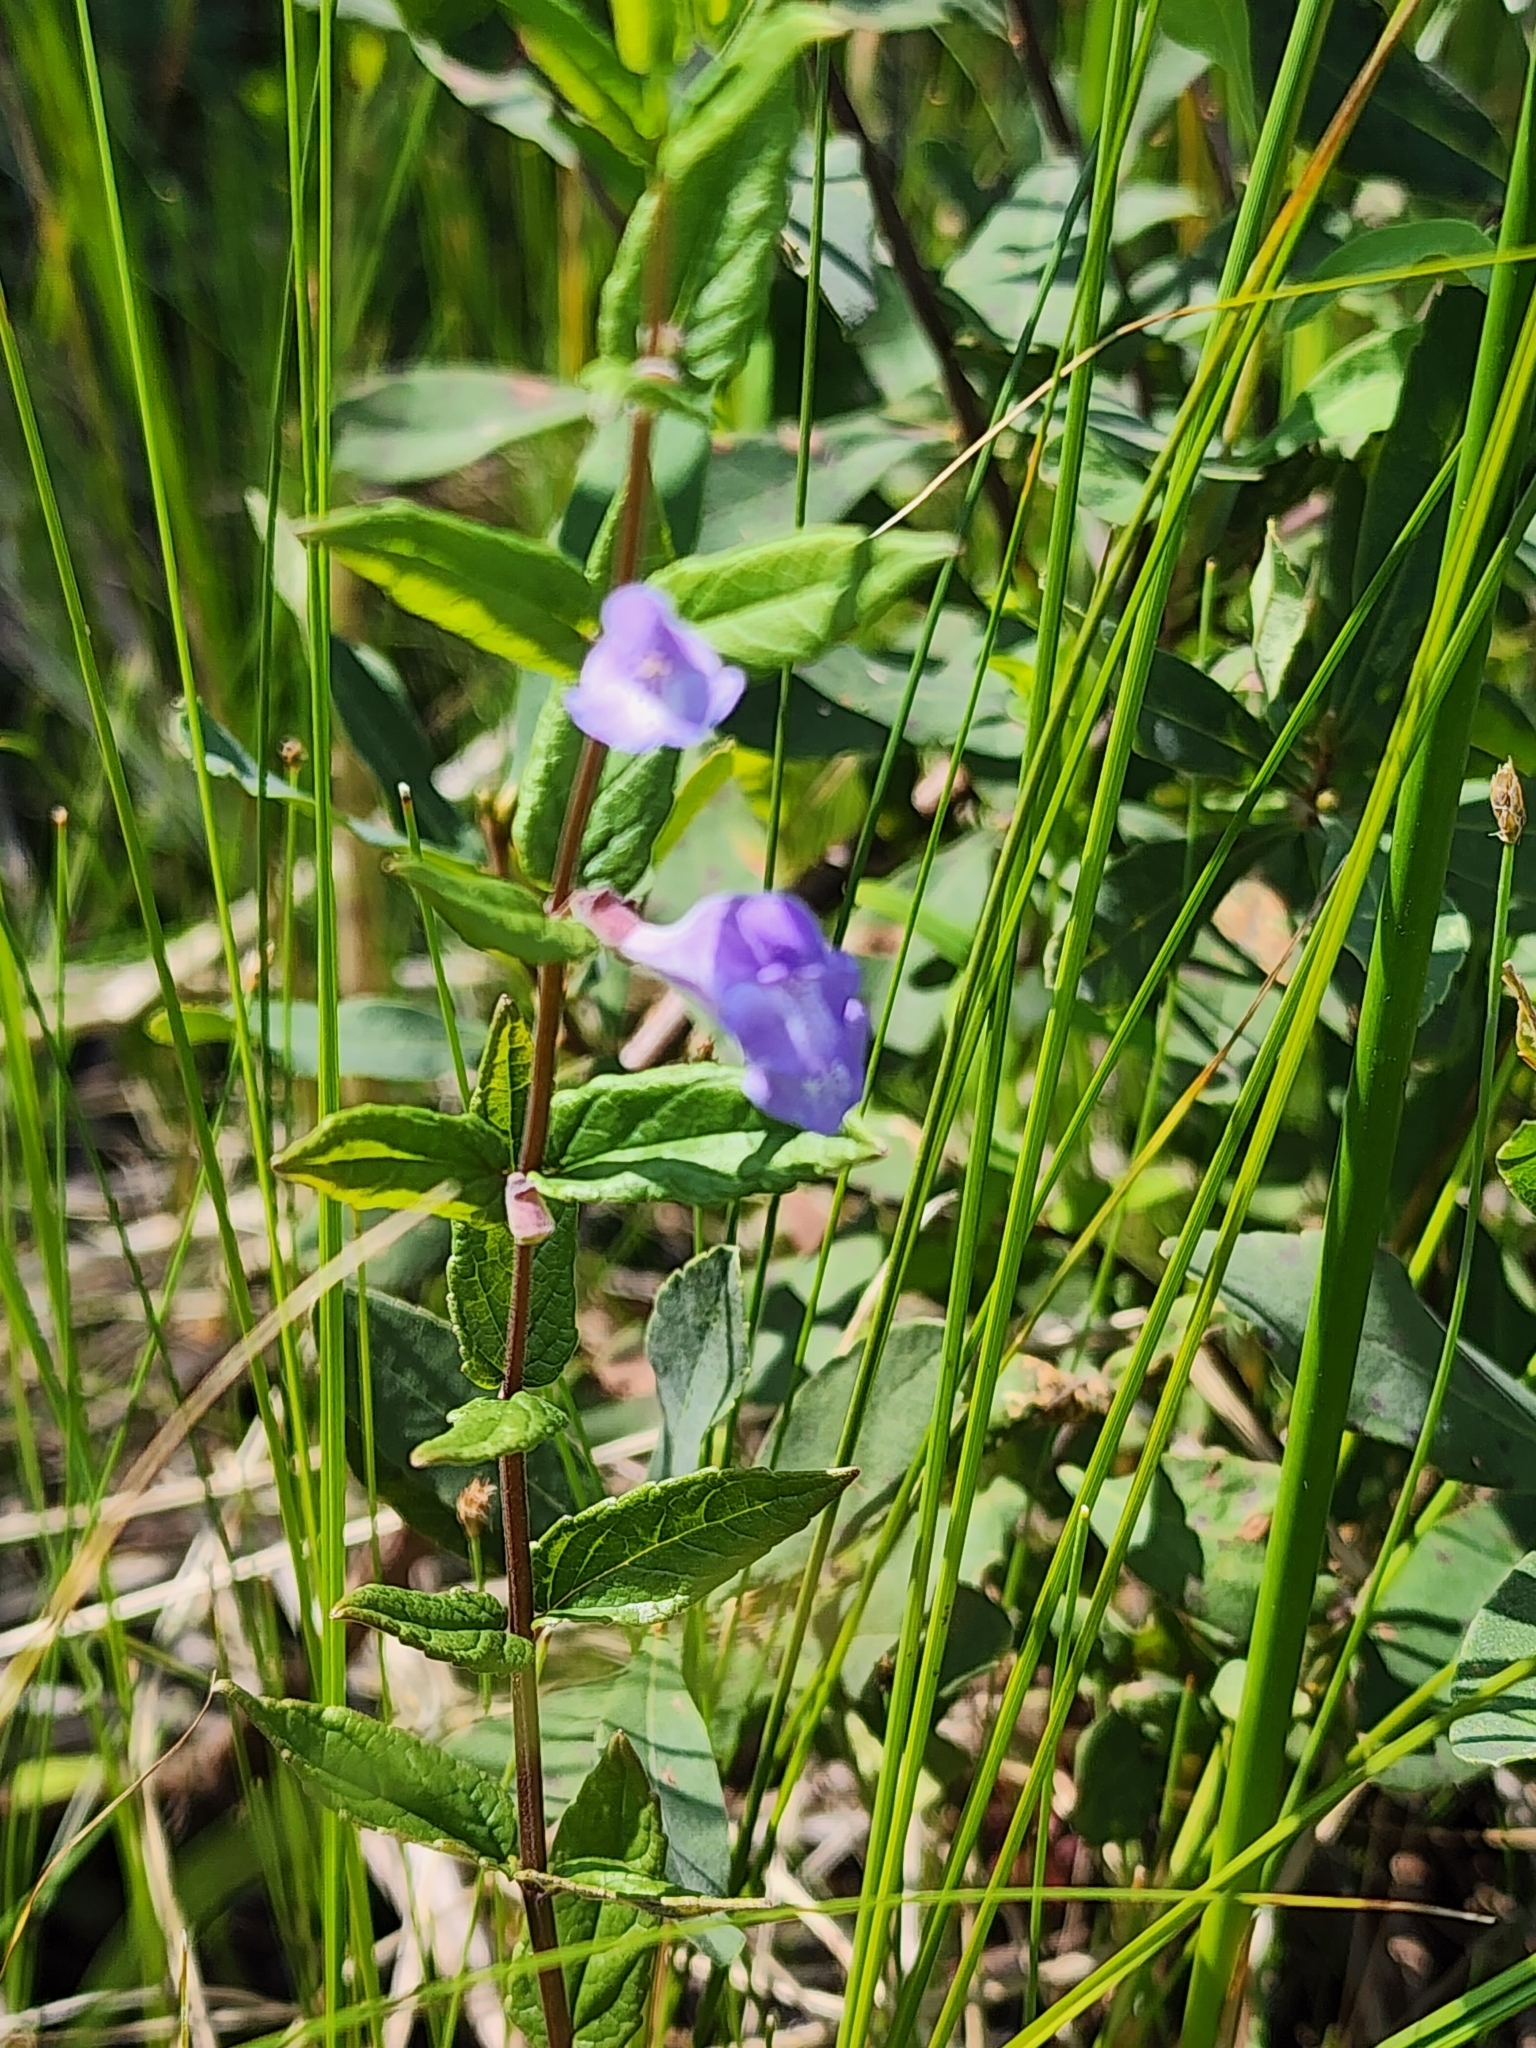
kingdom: Plantae
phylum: Tracheophyta
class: Magnoliopsida
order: Lamiales
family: Lamiaceae
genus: Scutellaria
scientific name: Scutellaria galericulata
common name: Skullcap
